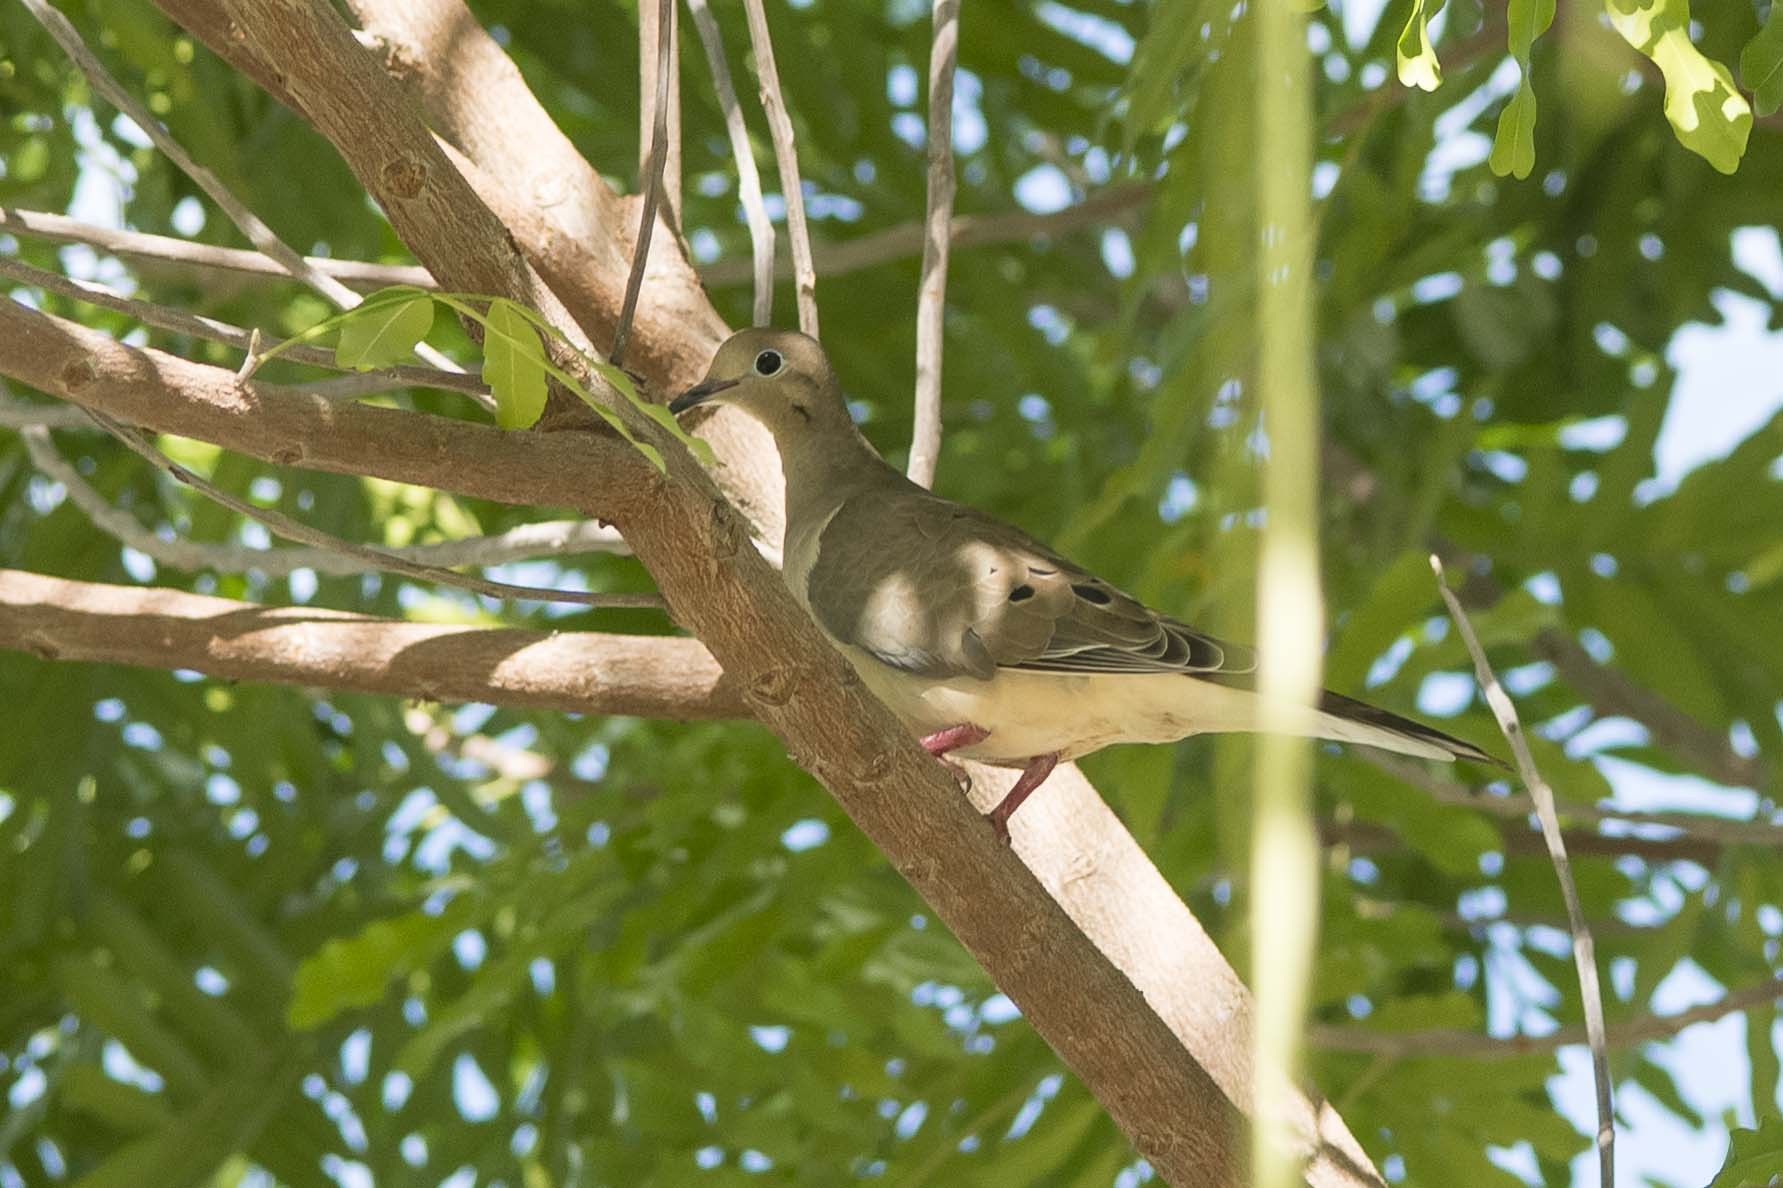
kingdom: Animalia
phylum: Chordata
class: Aves
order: Columbiformes
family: Columbidae
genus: Zenaida
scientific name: Zenaida macroura
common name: Mourning dove
